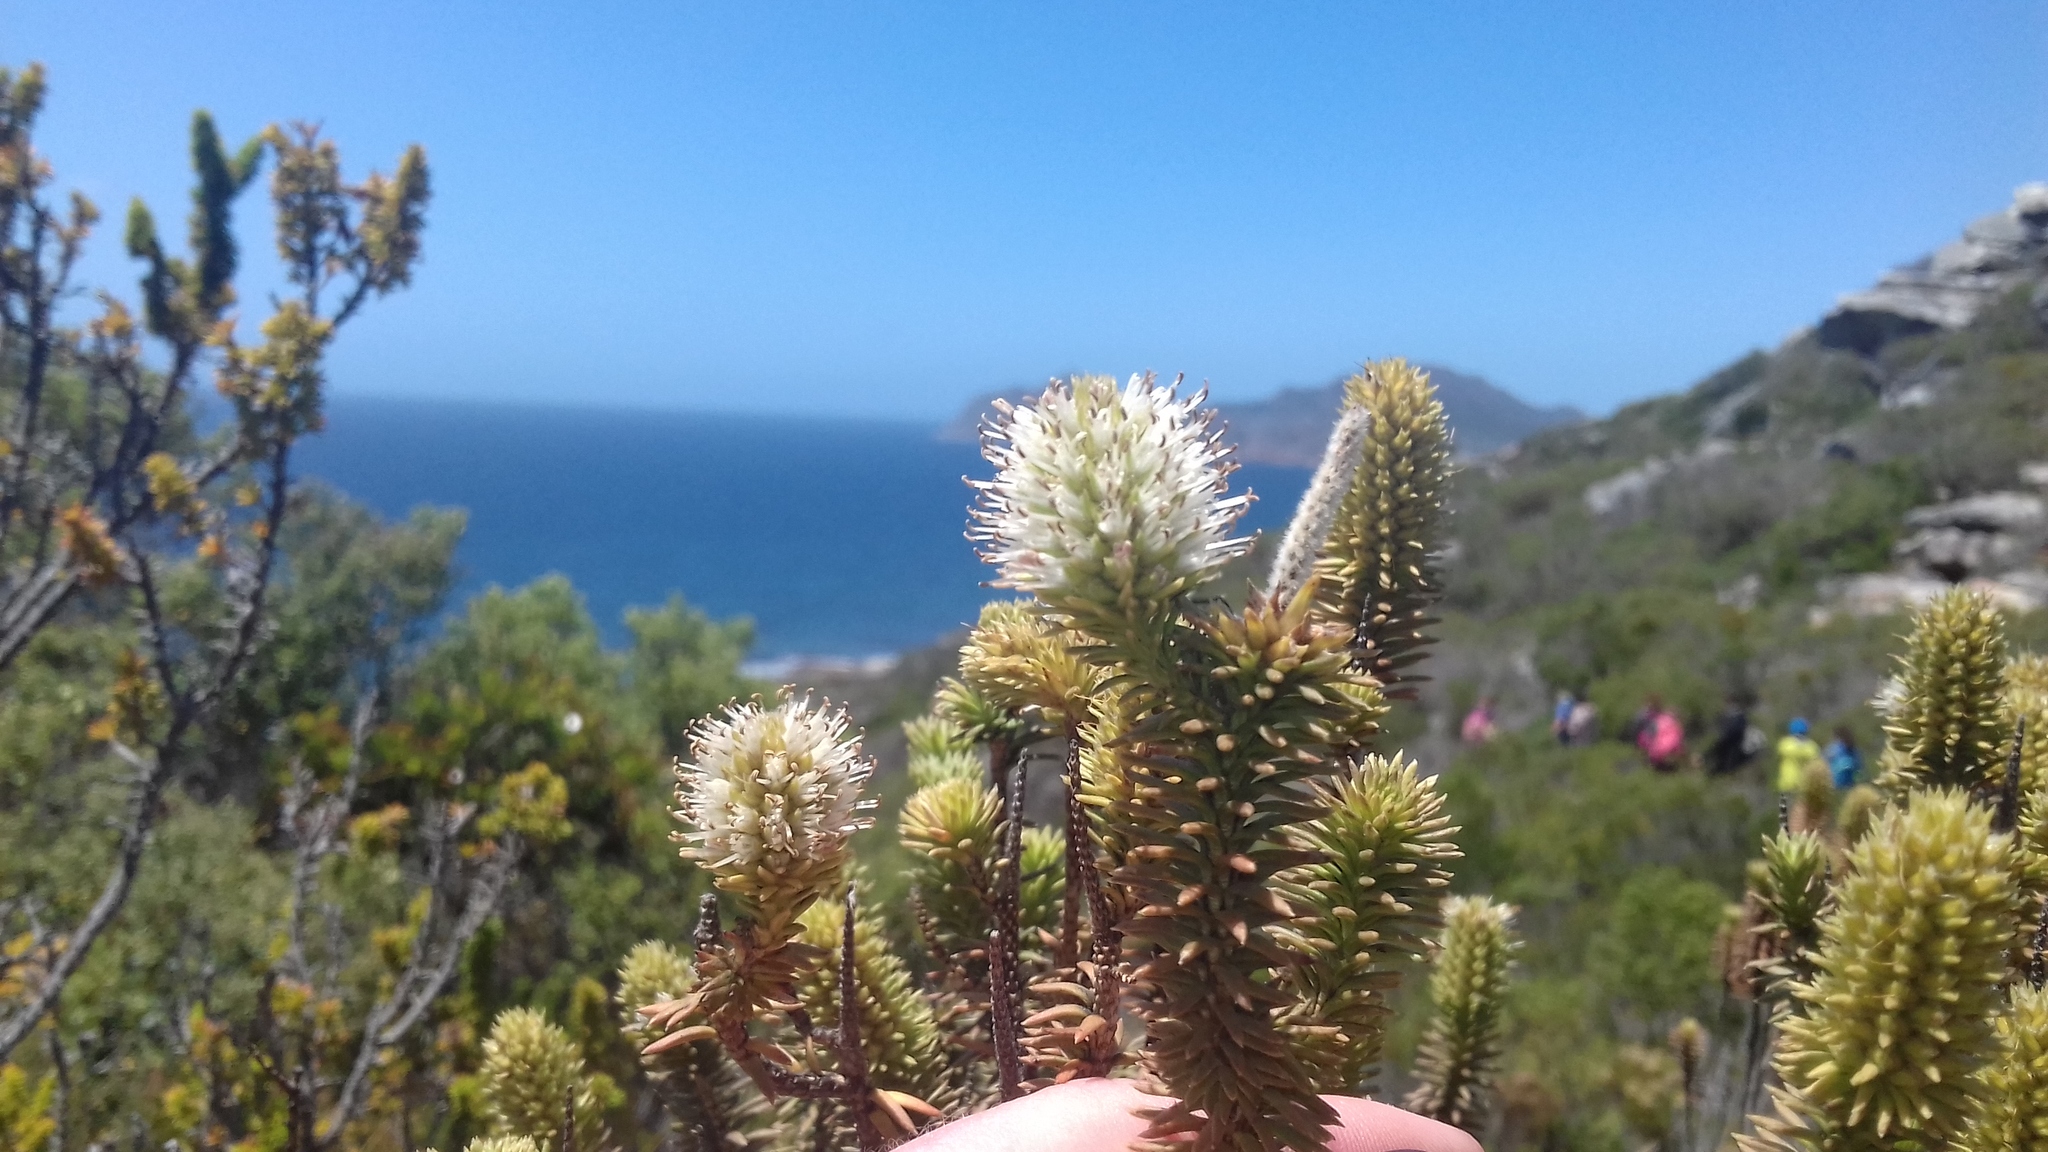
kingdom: Plantae
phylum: Tracheophyta
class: Magnoliopsida
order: Lamiales
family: Stilbaceae
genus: Stilbe
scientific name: Stilbe vestita
